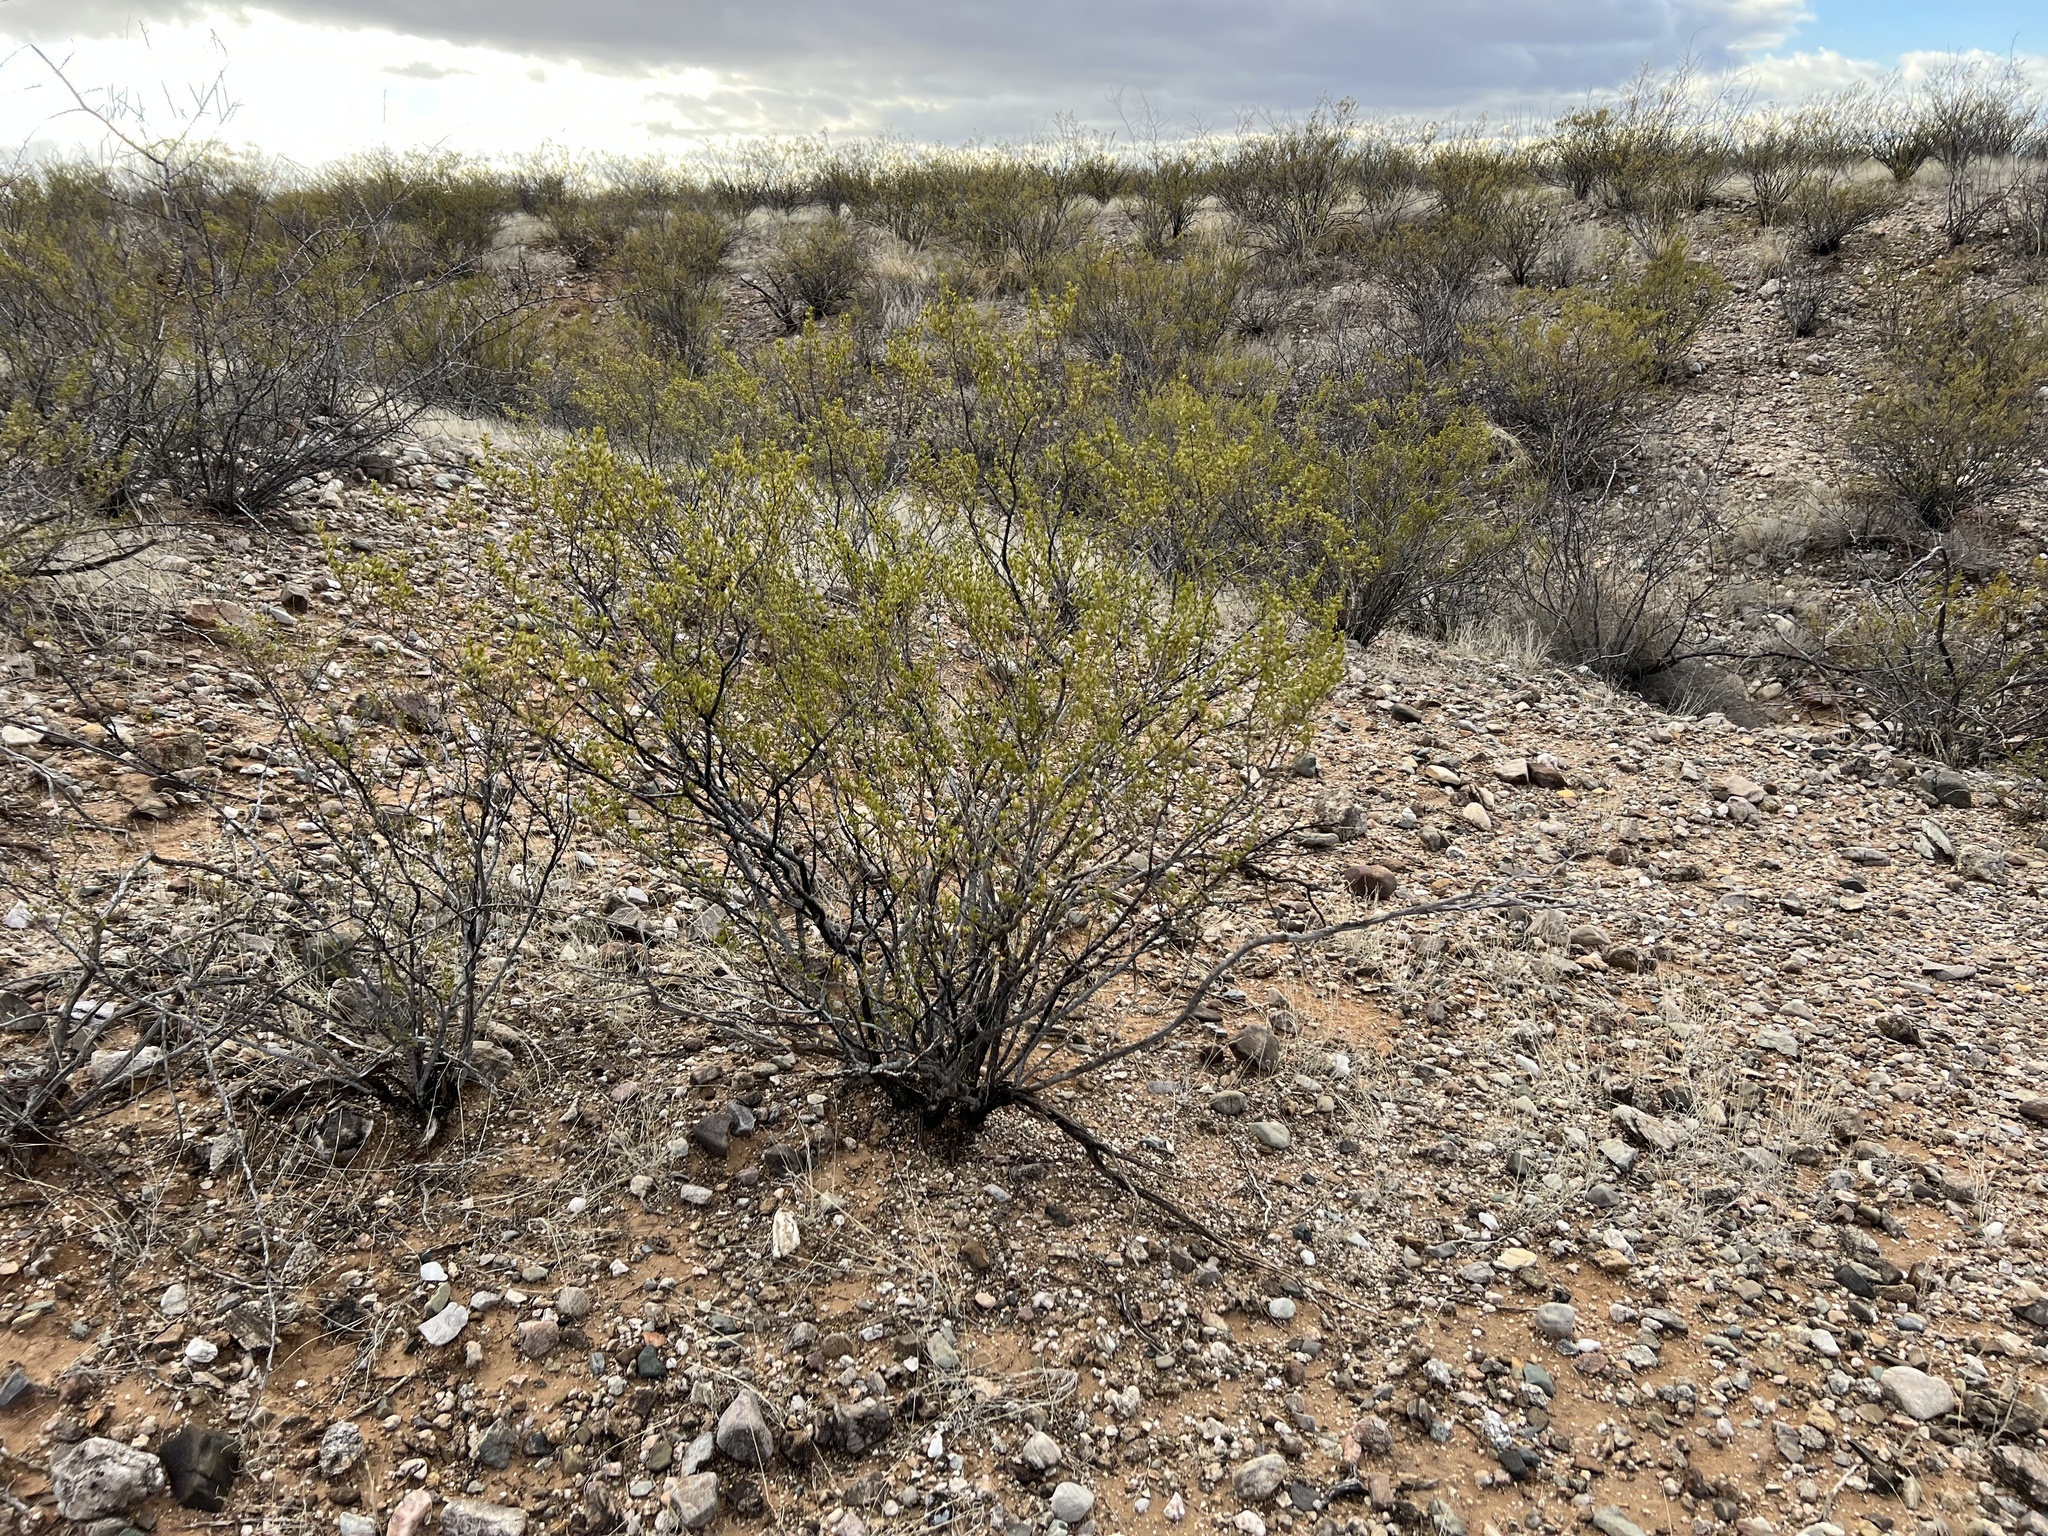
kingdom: Plantae
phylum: Tracheophyta
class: Magnoliopsida
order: Zygophyllales
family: Zygophyllaceae
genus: Larrea
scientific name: Larrea tridentata
